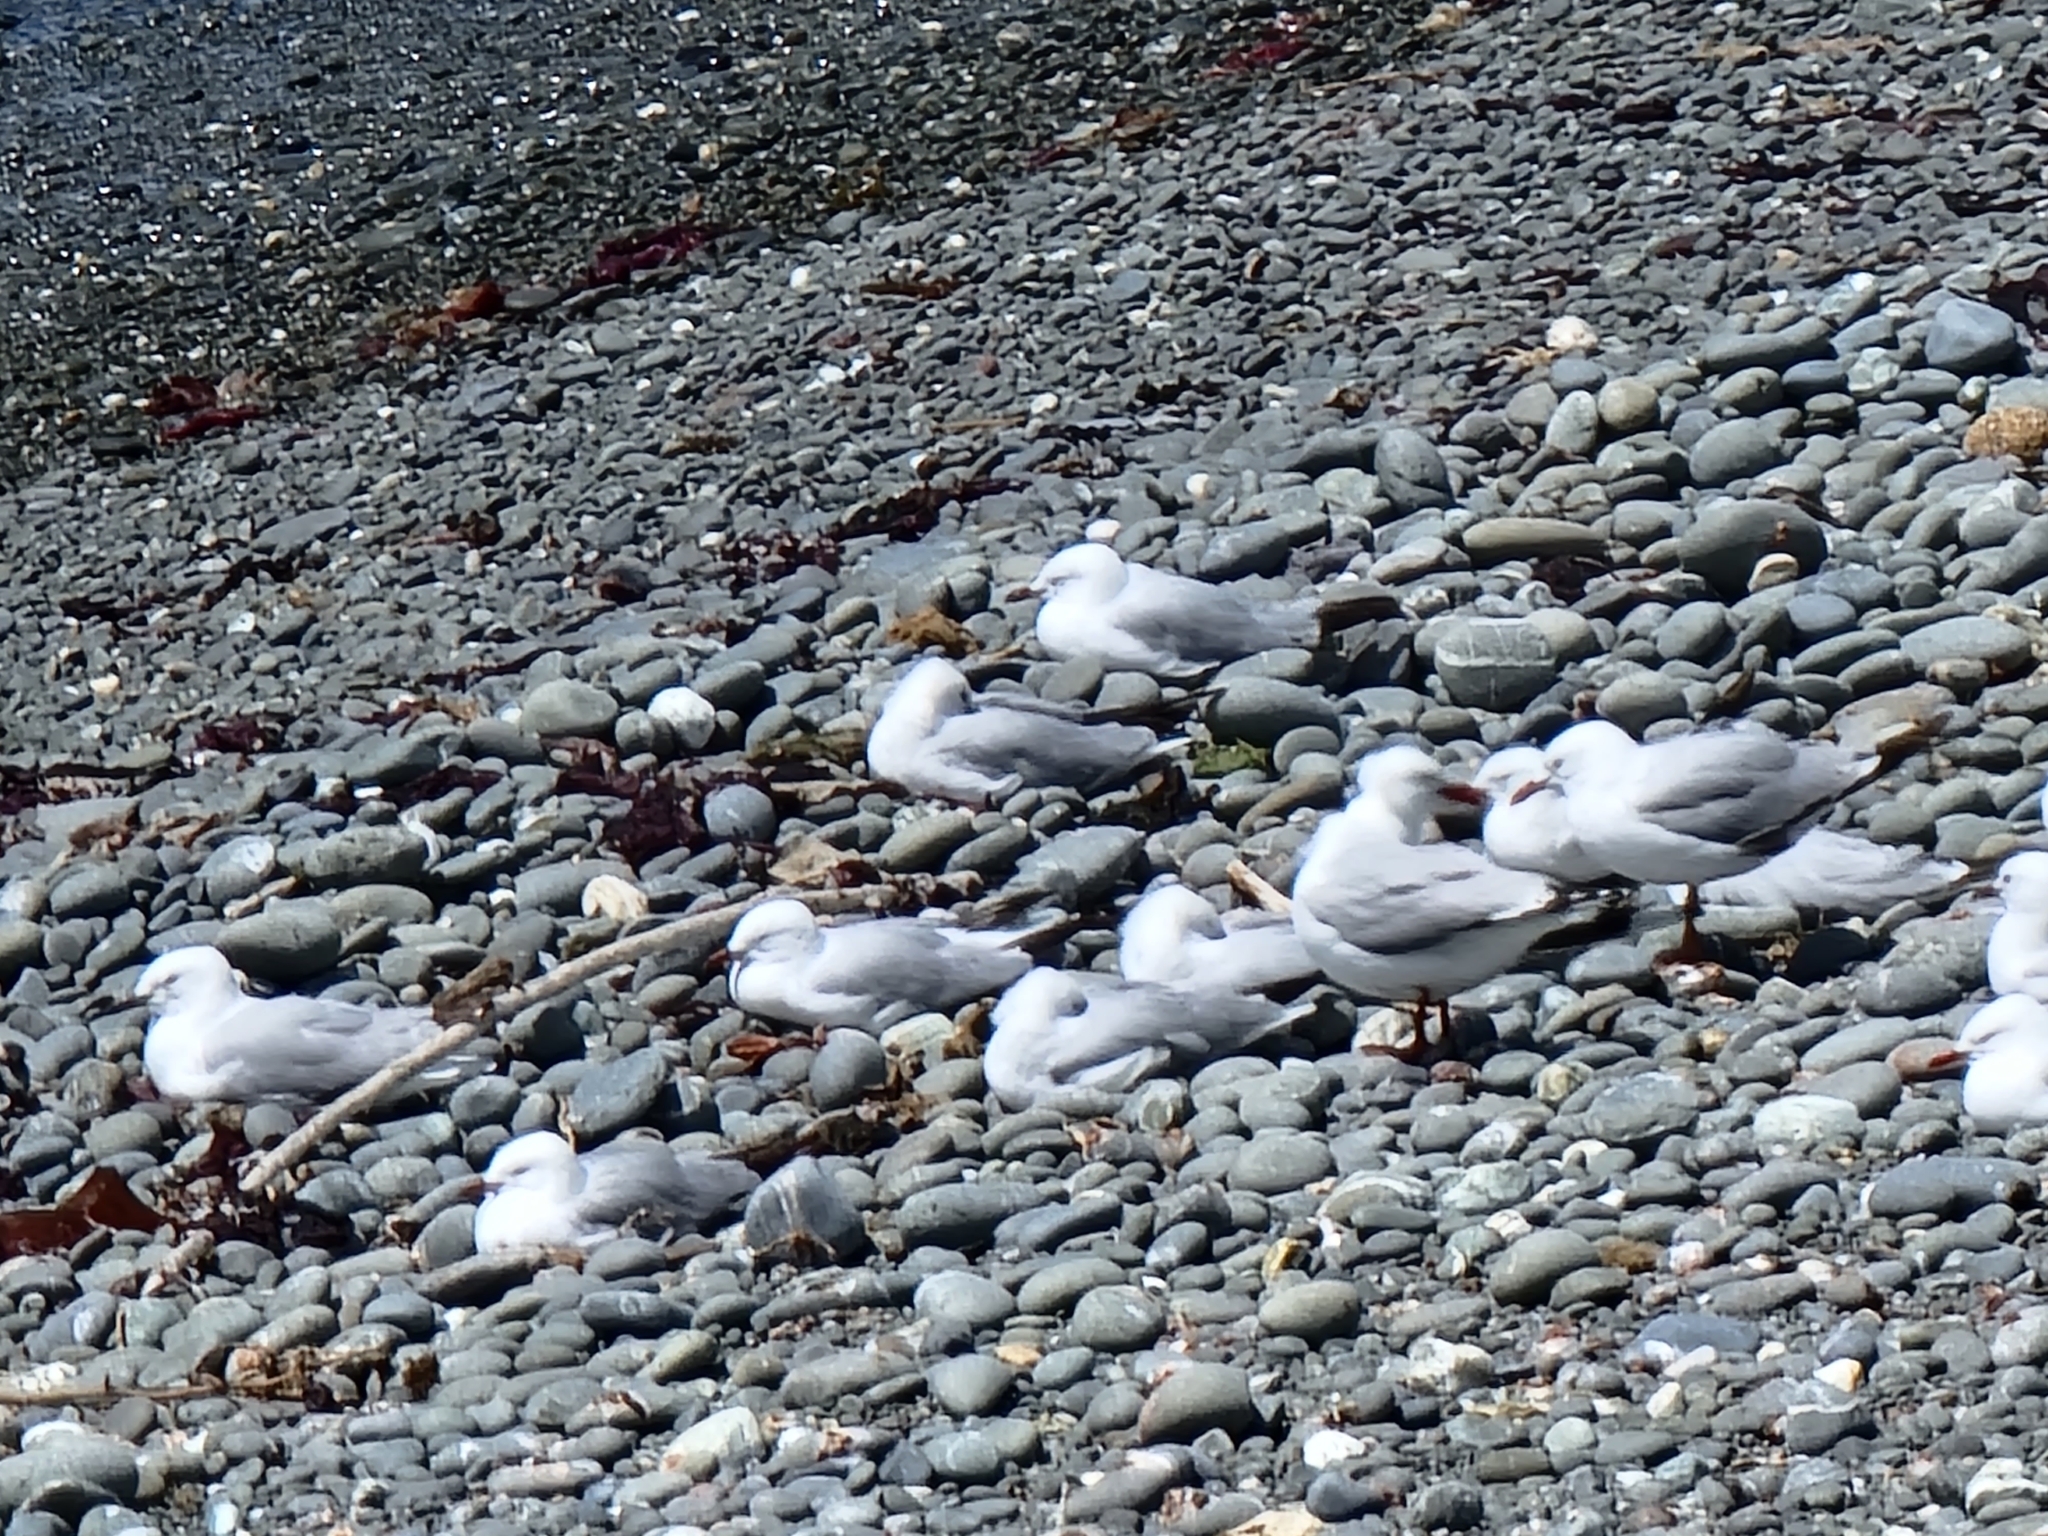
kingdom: Animalia
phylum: Chordata
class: Aves
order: Charadriiformes
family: Laridae
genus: Chroicocephalus
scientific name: Chroicocephalus novaehollandiae
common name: Silver gull
